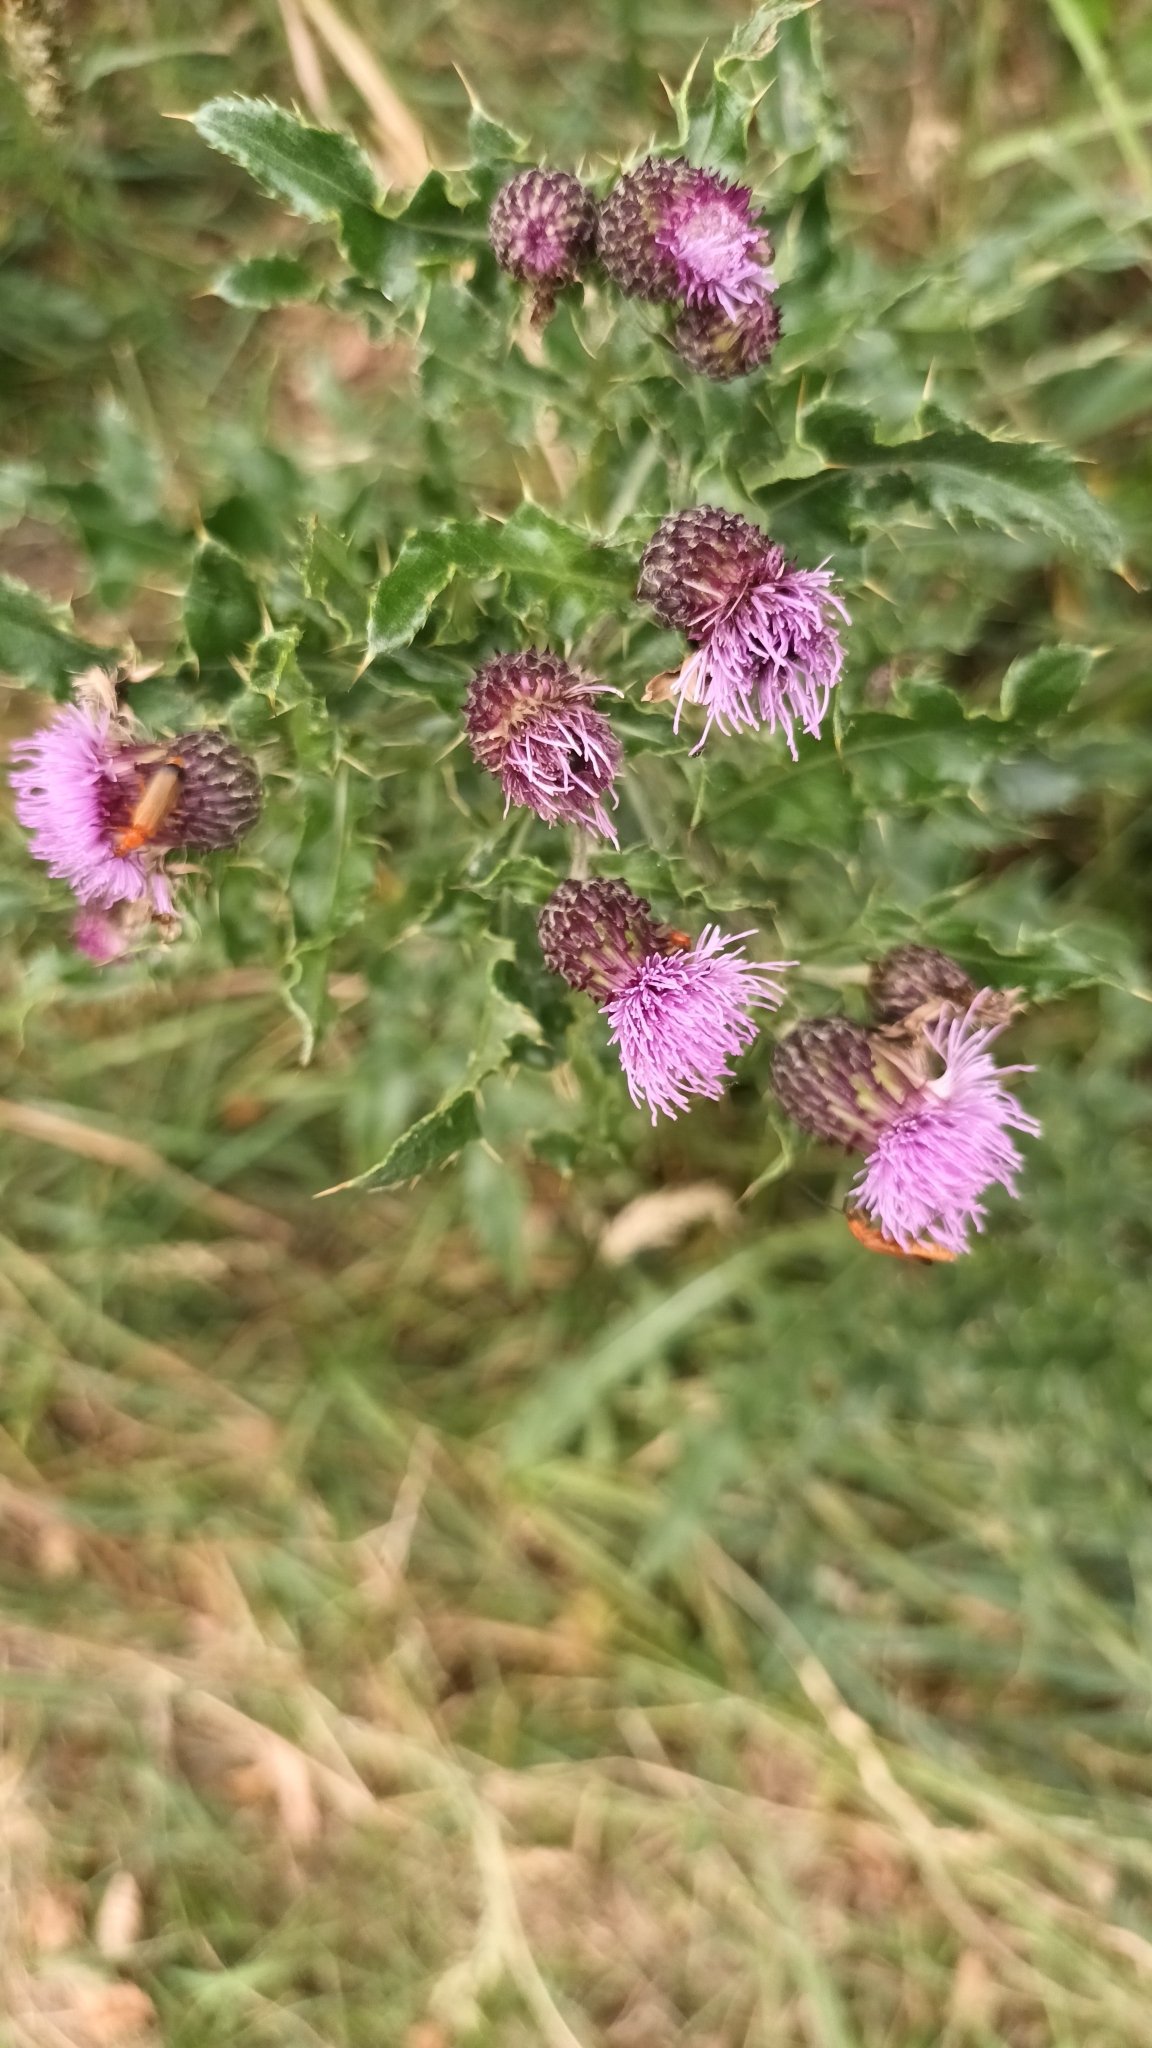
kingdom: Plantae
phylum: Tracheophyta
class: Magnoliopsida
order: Asterales
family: Asteraceae
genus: Cirsium
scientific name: Cirsium arvense
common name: Creeping thistle
